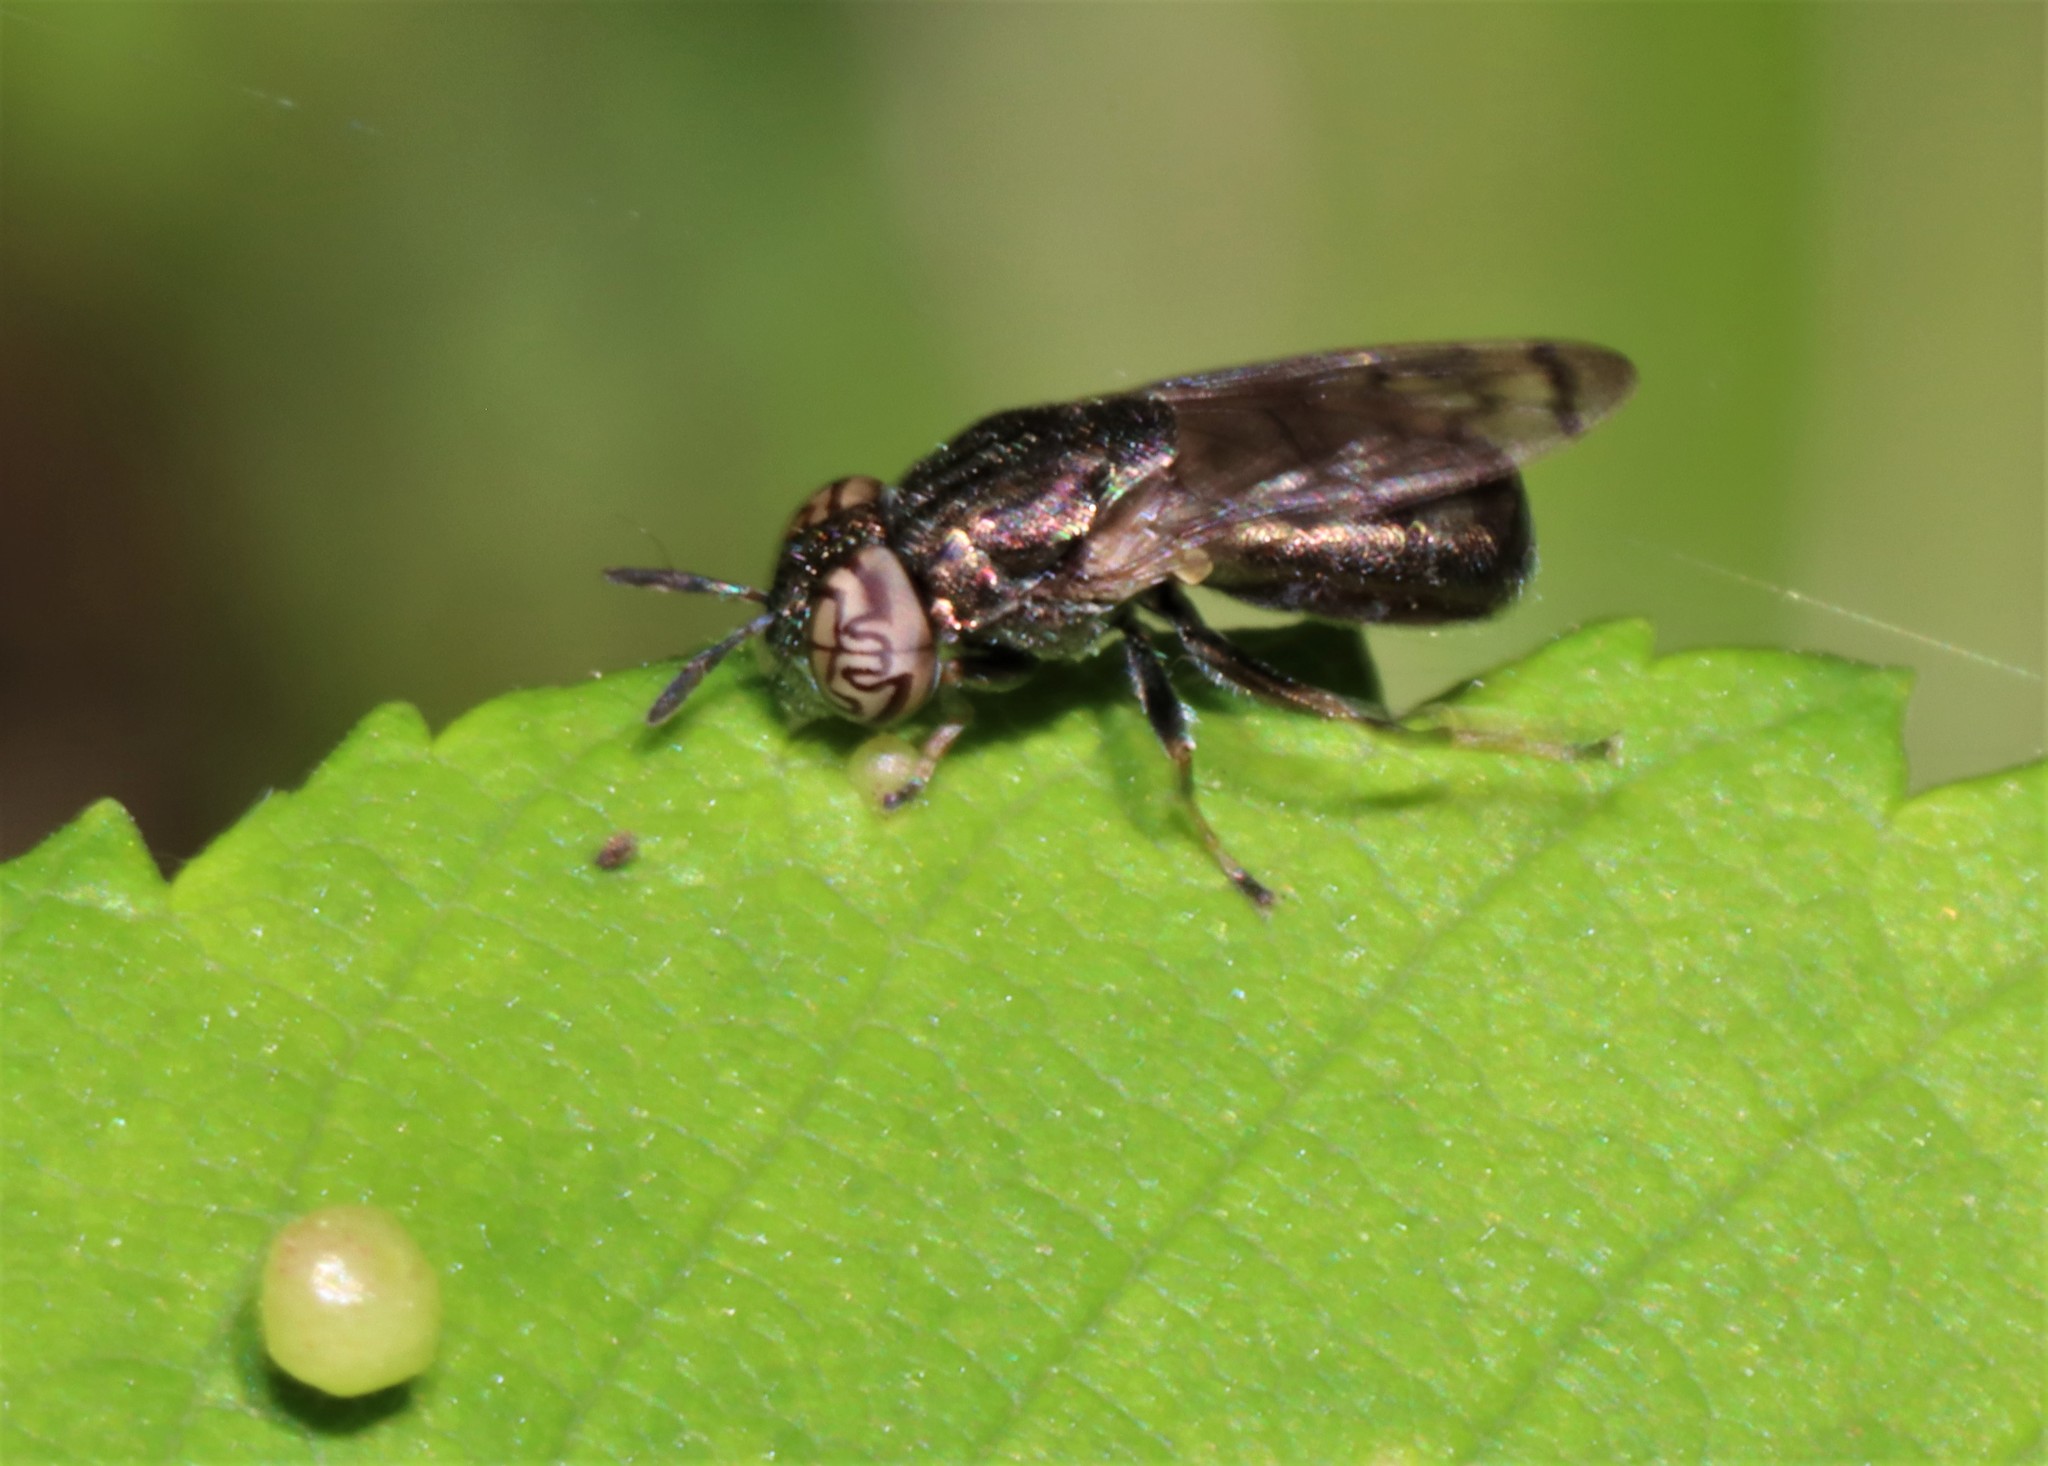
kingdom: Animalia
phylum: Arthropoda
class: Insecta
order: Diptera
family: Syrphidae
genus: Orthonevra
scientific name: Orthonevra nitida
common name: Wavy mucksucker
